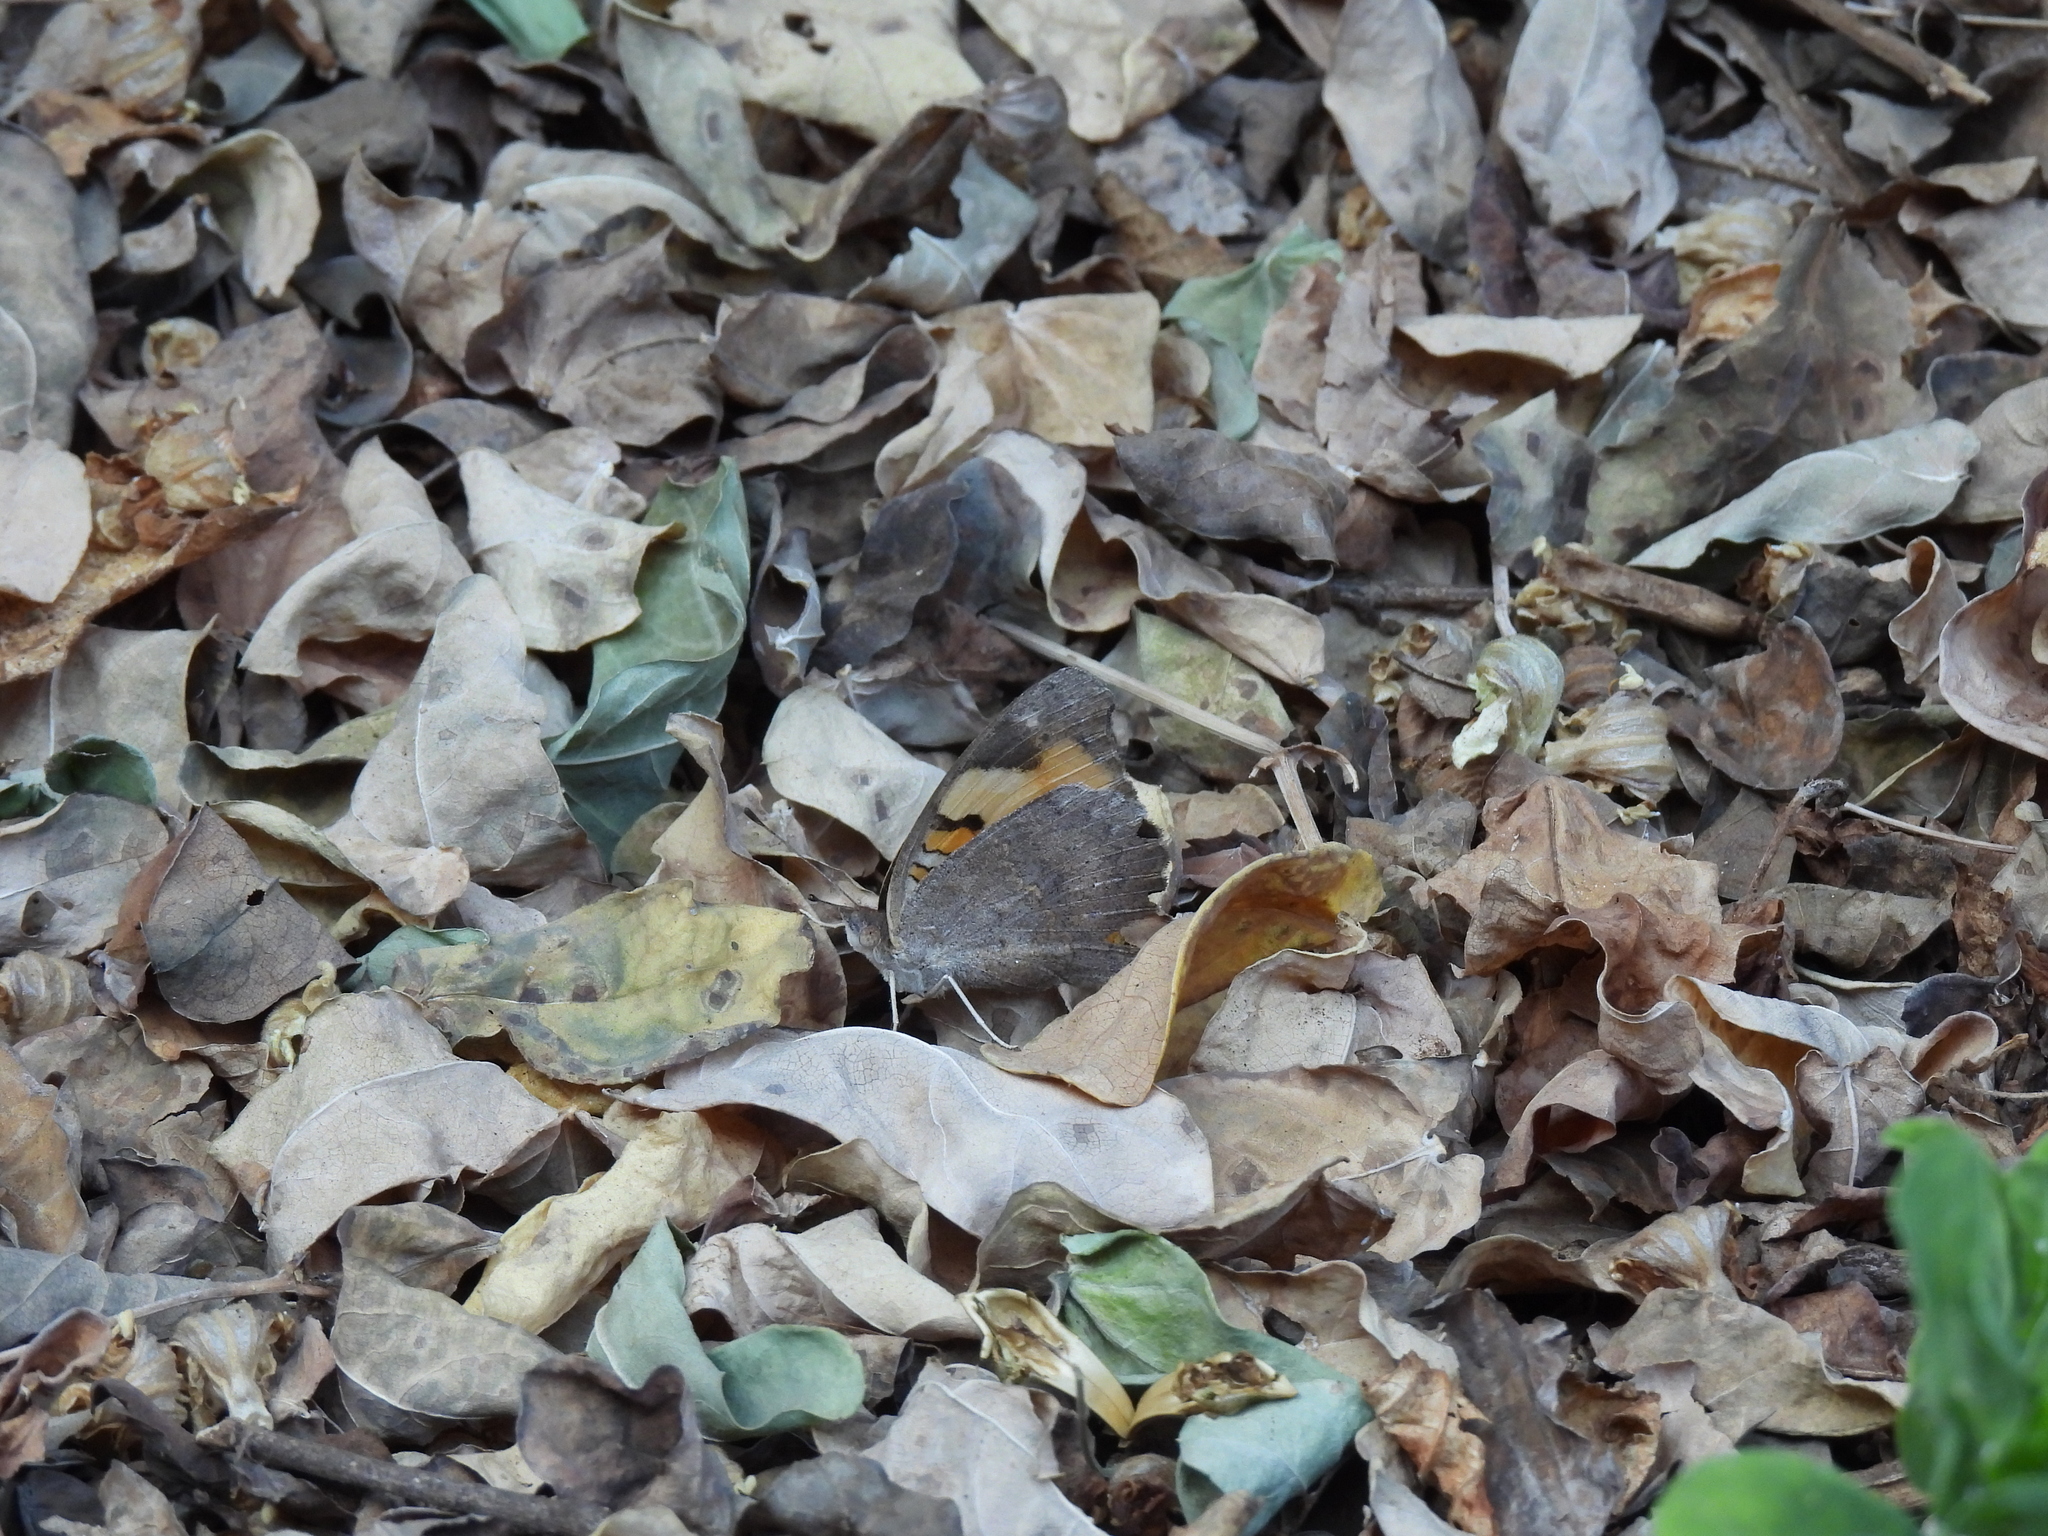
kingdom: Animalia
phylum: Arthropoda
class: Insecta
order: Lepidoptera
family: Nymphalidae
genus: Junonia
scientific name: Junonia hierta
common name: Yellow pansy
